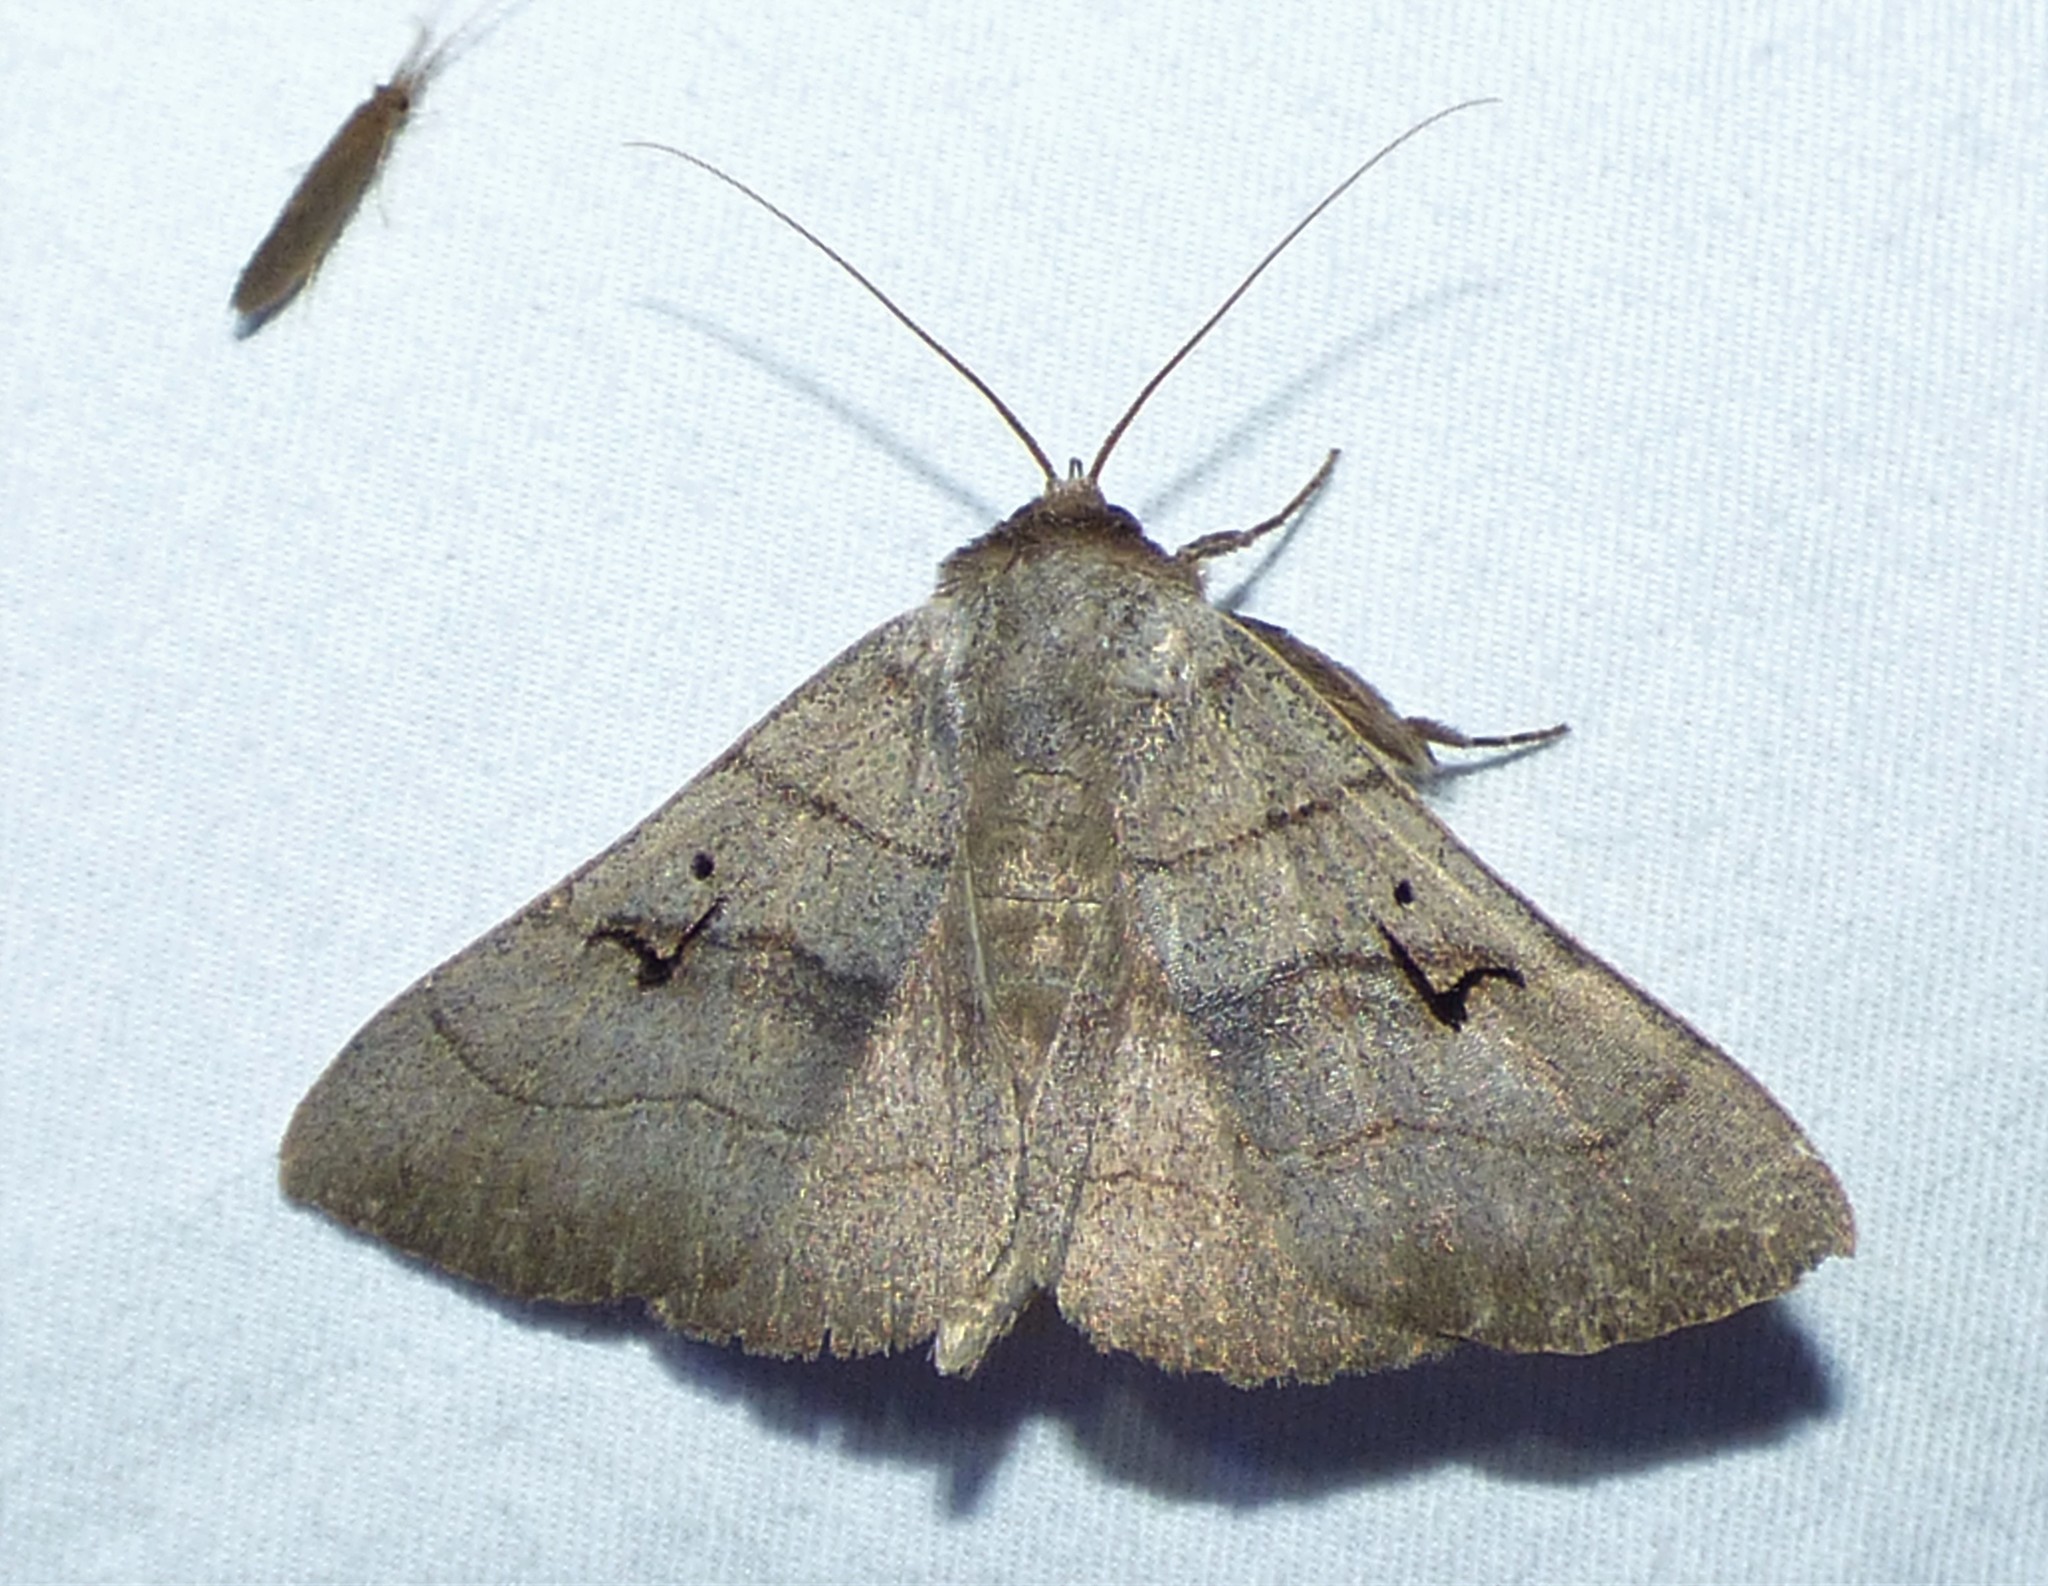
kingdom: Animalia
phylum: Arthropoda
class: Insecta
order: Lepidoptera
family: Erebidae
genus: Panopoda
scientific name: Panopoda carneicosta
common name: Brown panopoda moth
